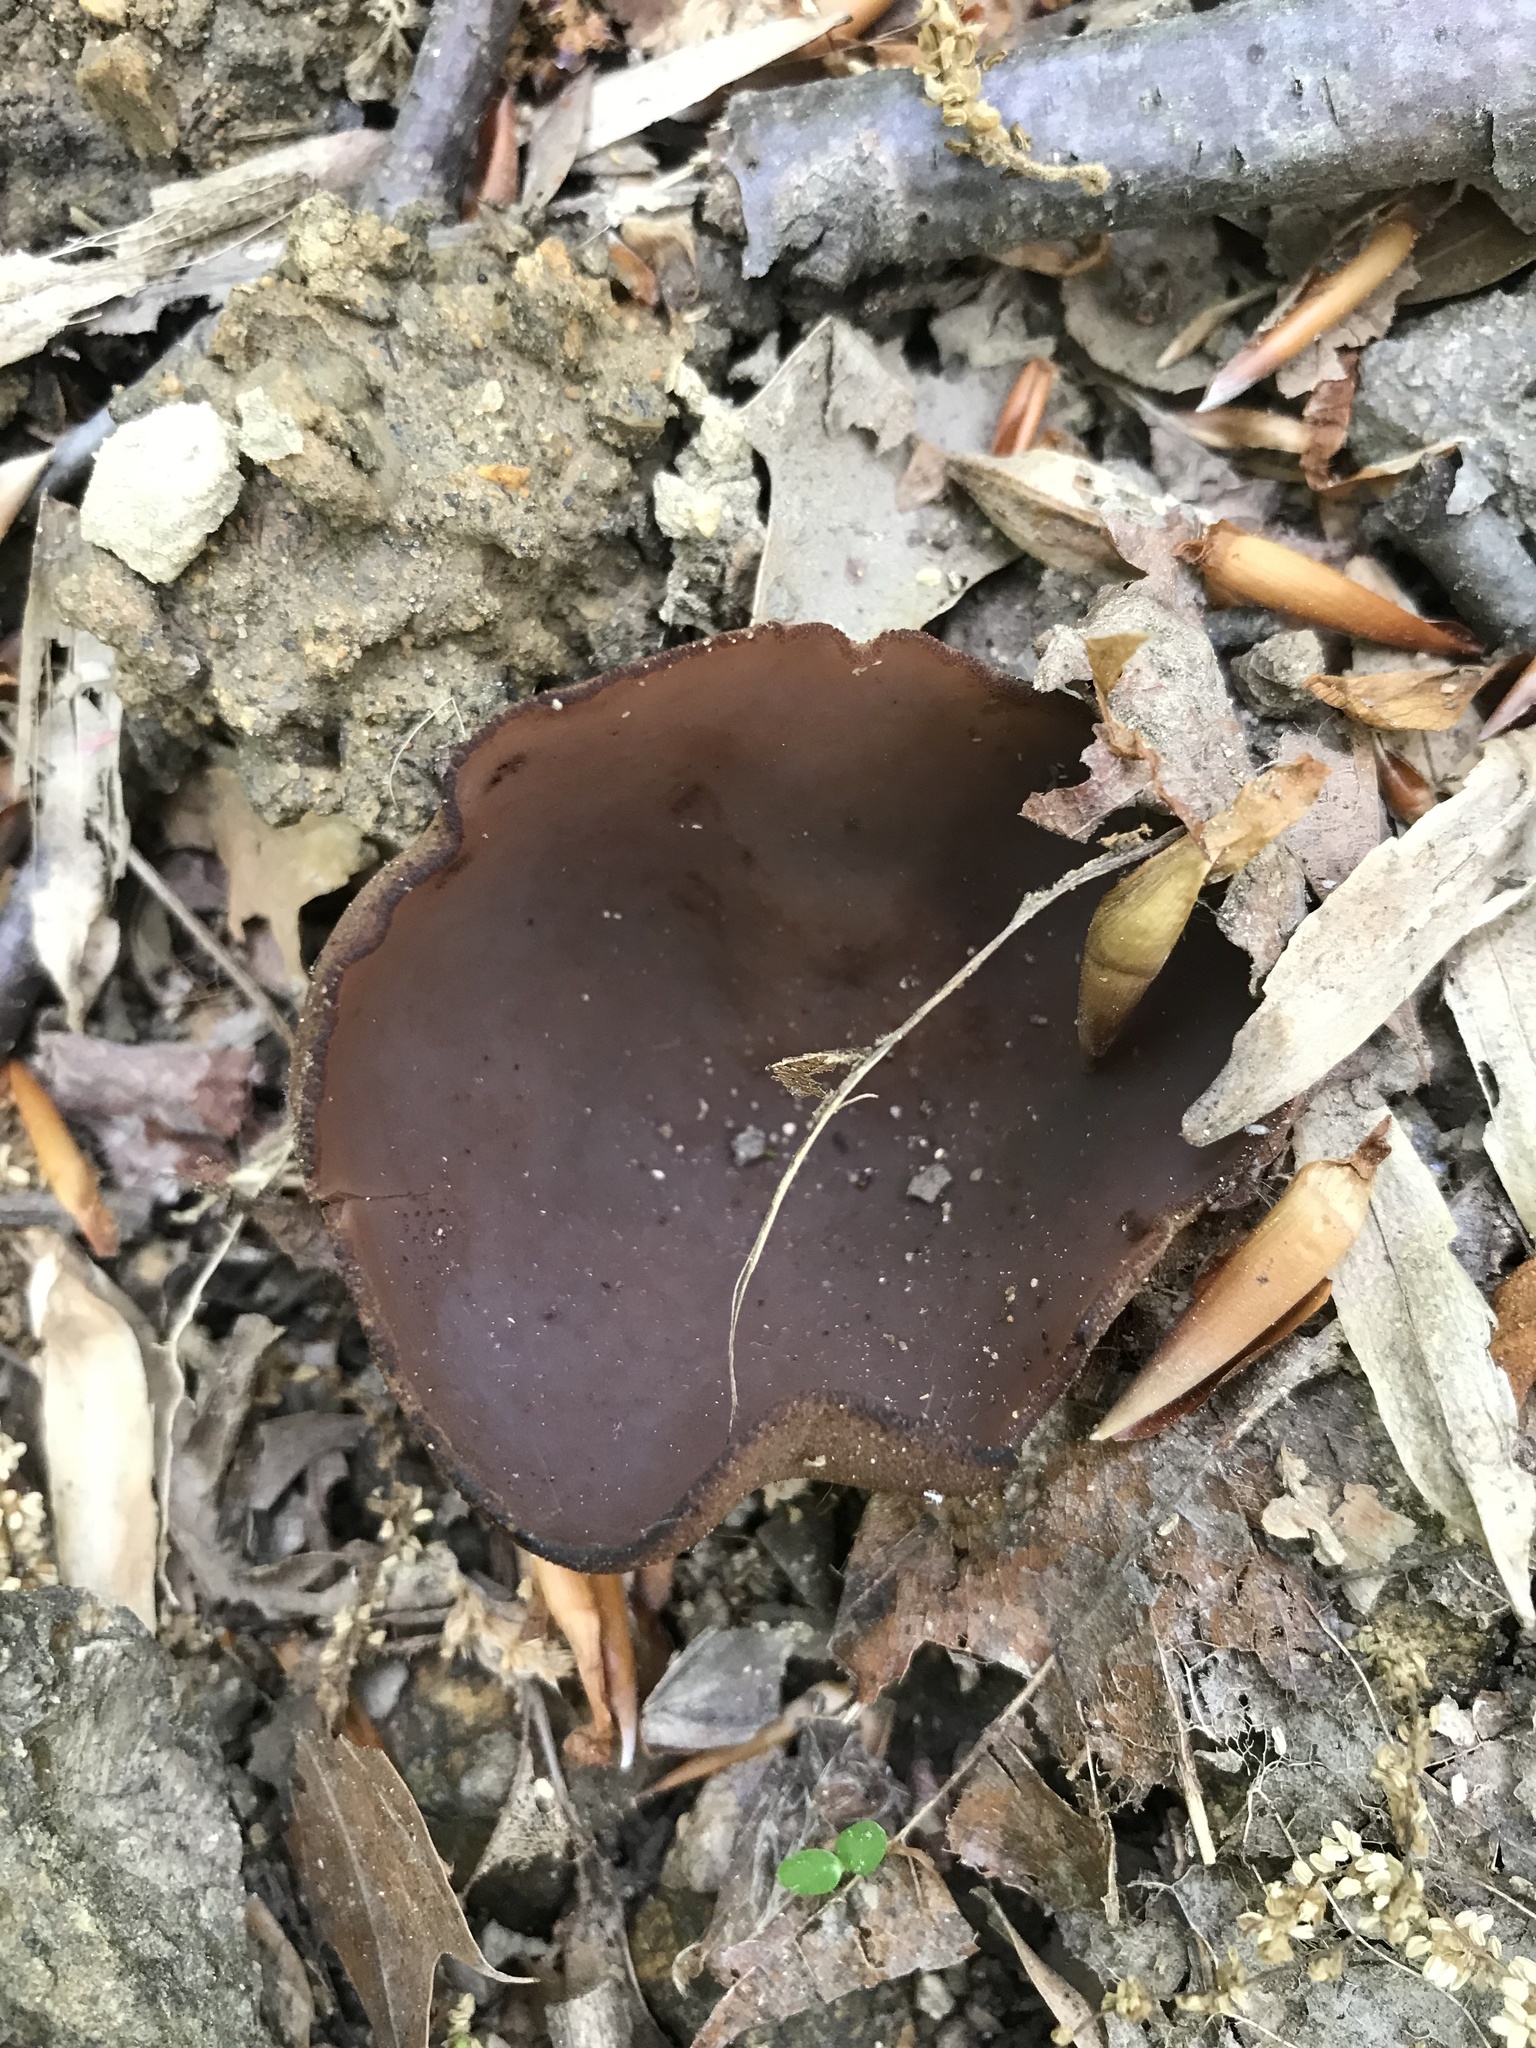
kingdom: Fungi
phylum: Ascomycota
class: Pezizomycetes
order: Pezizales
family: Pezizaceae
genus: Phylloscypha
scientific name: Phylloscypha phyllogena
